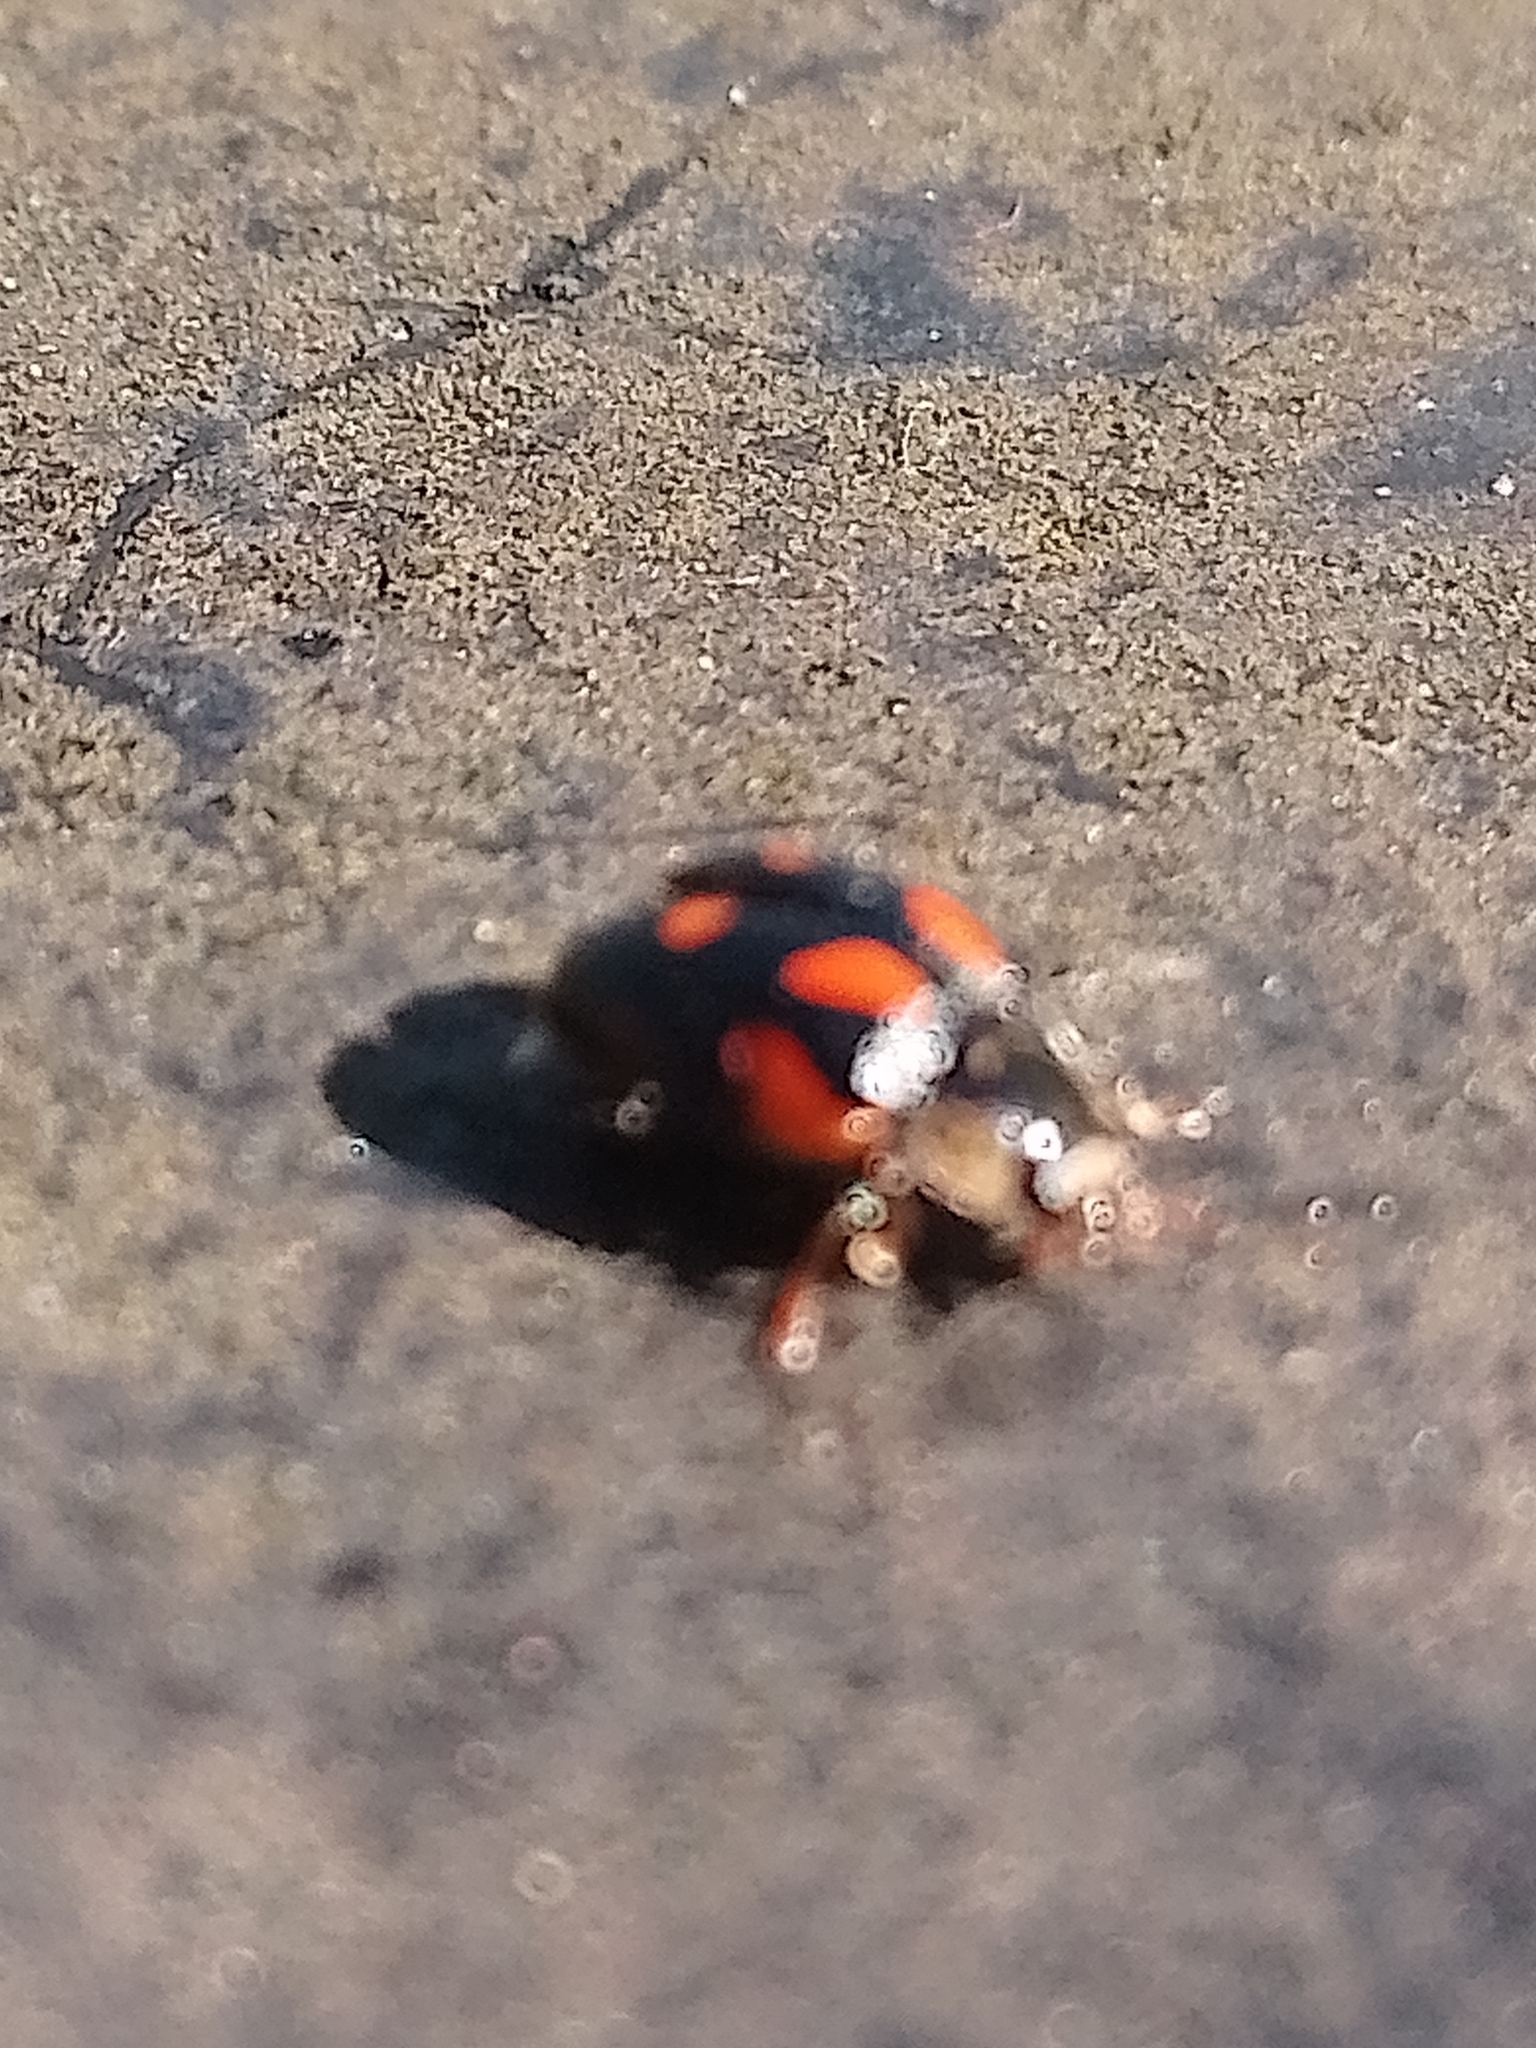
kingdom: Animalia
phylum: Arthropoda
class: Insecta
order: Coleoptera
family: Coccinellidae
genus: Adalia
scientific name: Adalia decempunctata
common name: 10-spot ladybird
